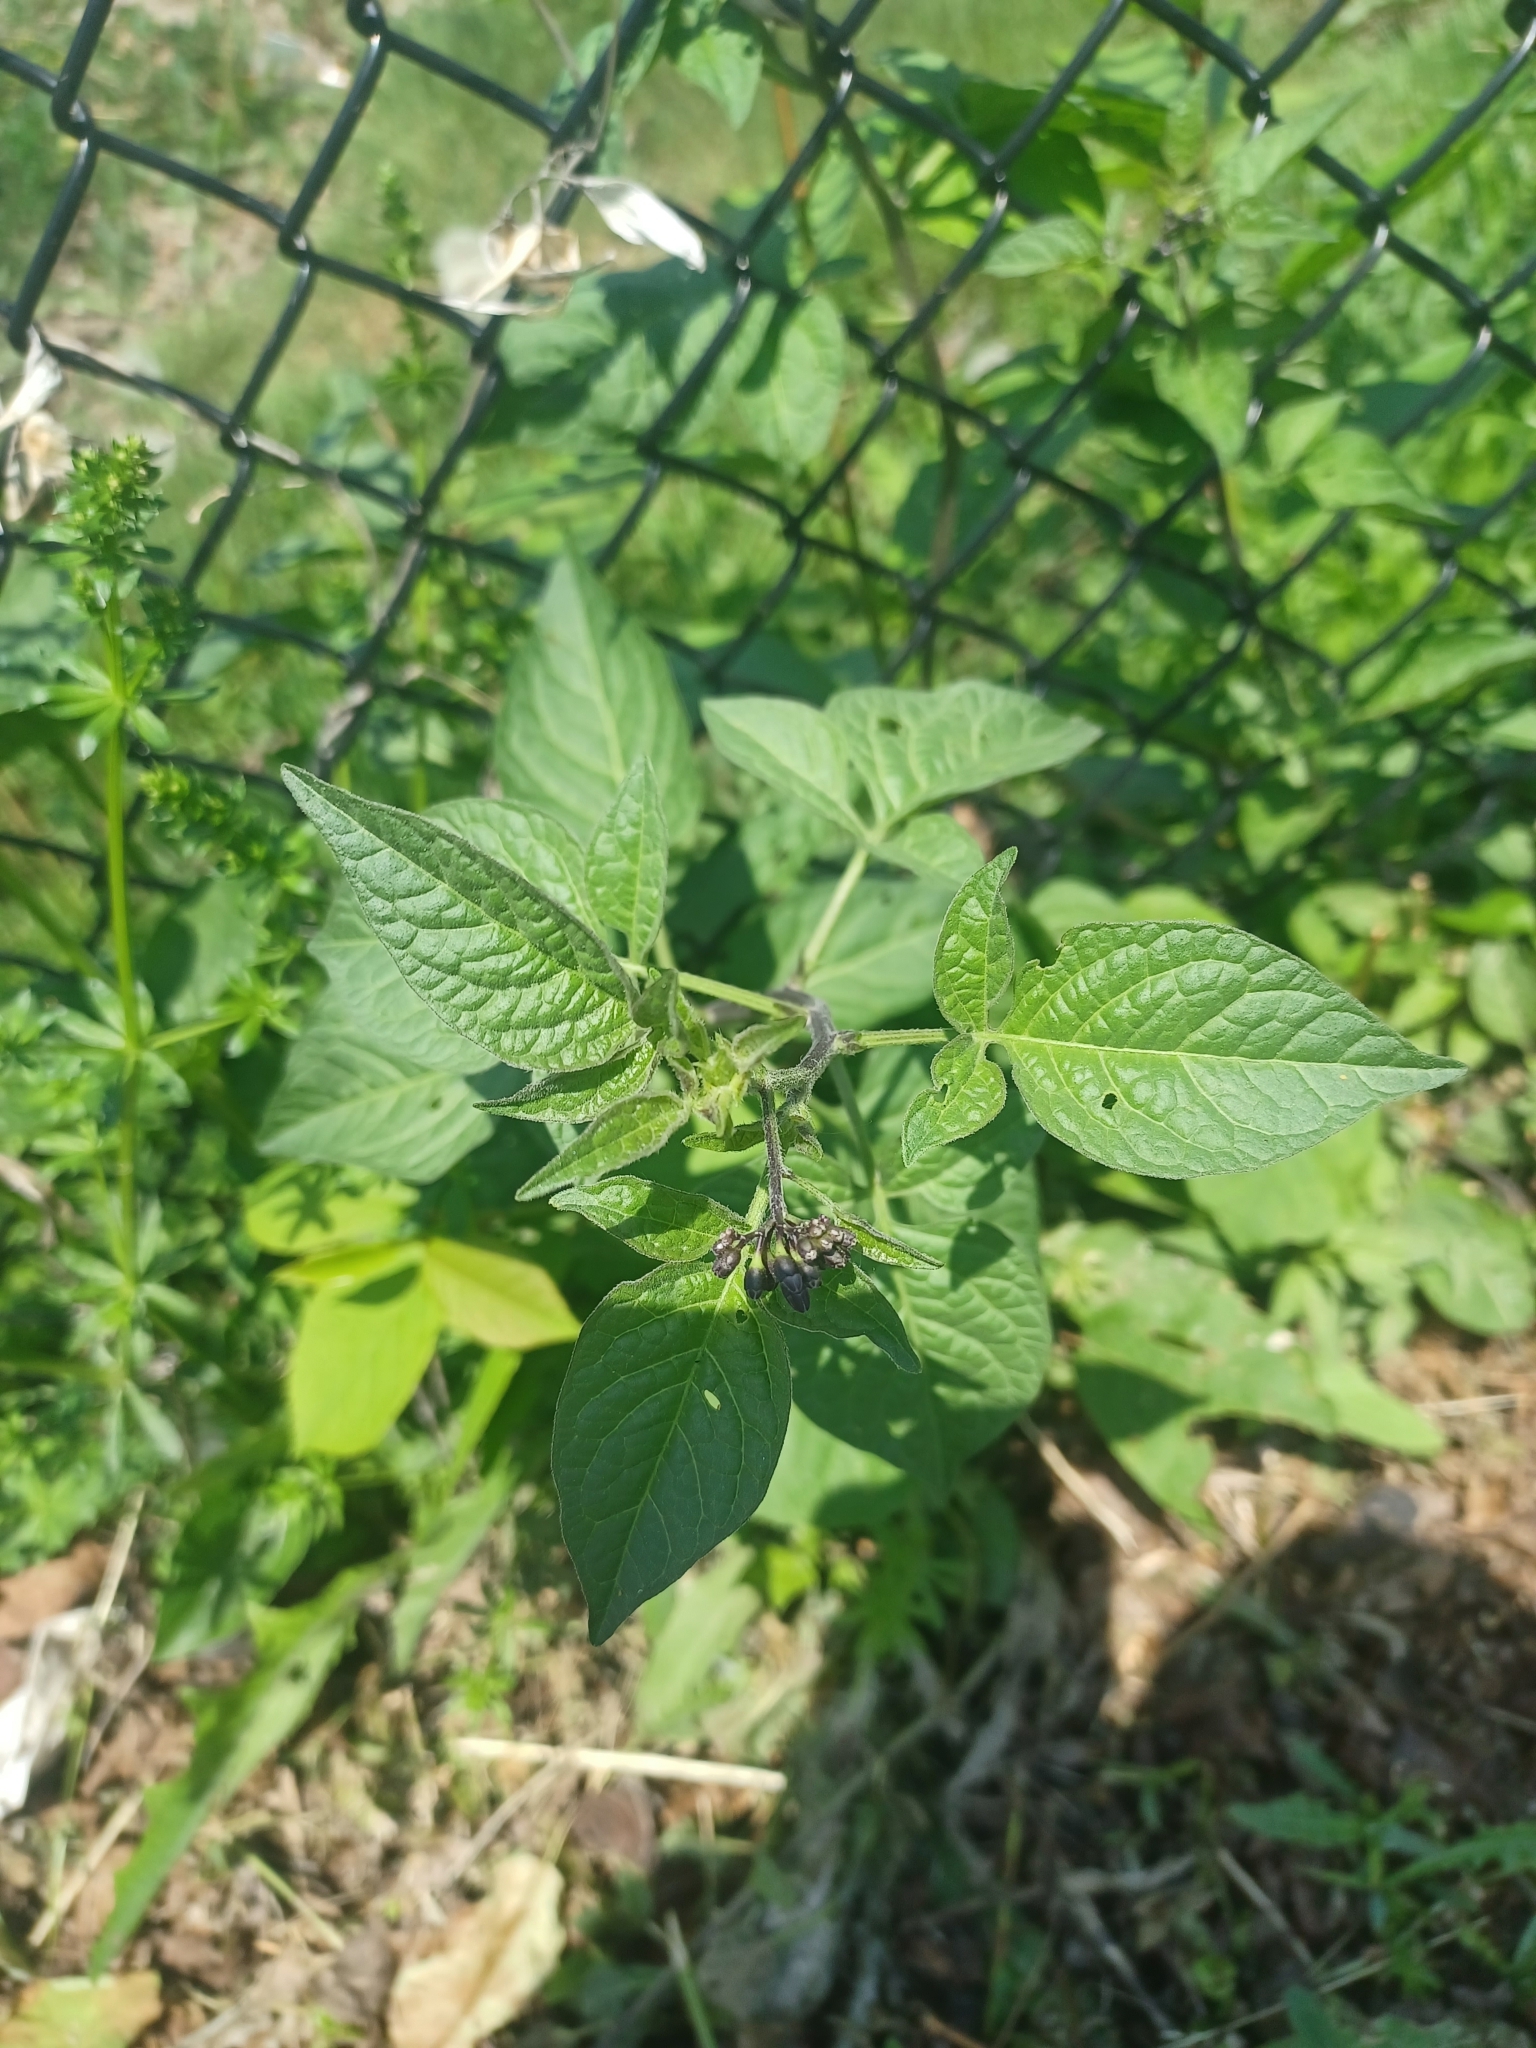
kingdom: Plantae
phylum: Tracheophyta
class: Magnoliopsida
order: Solanales
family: Solanaceae
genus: Solanum
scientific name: Solanum dulcamara
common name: Climbing nightshade
